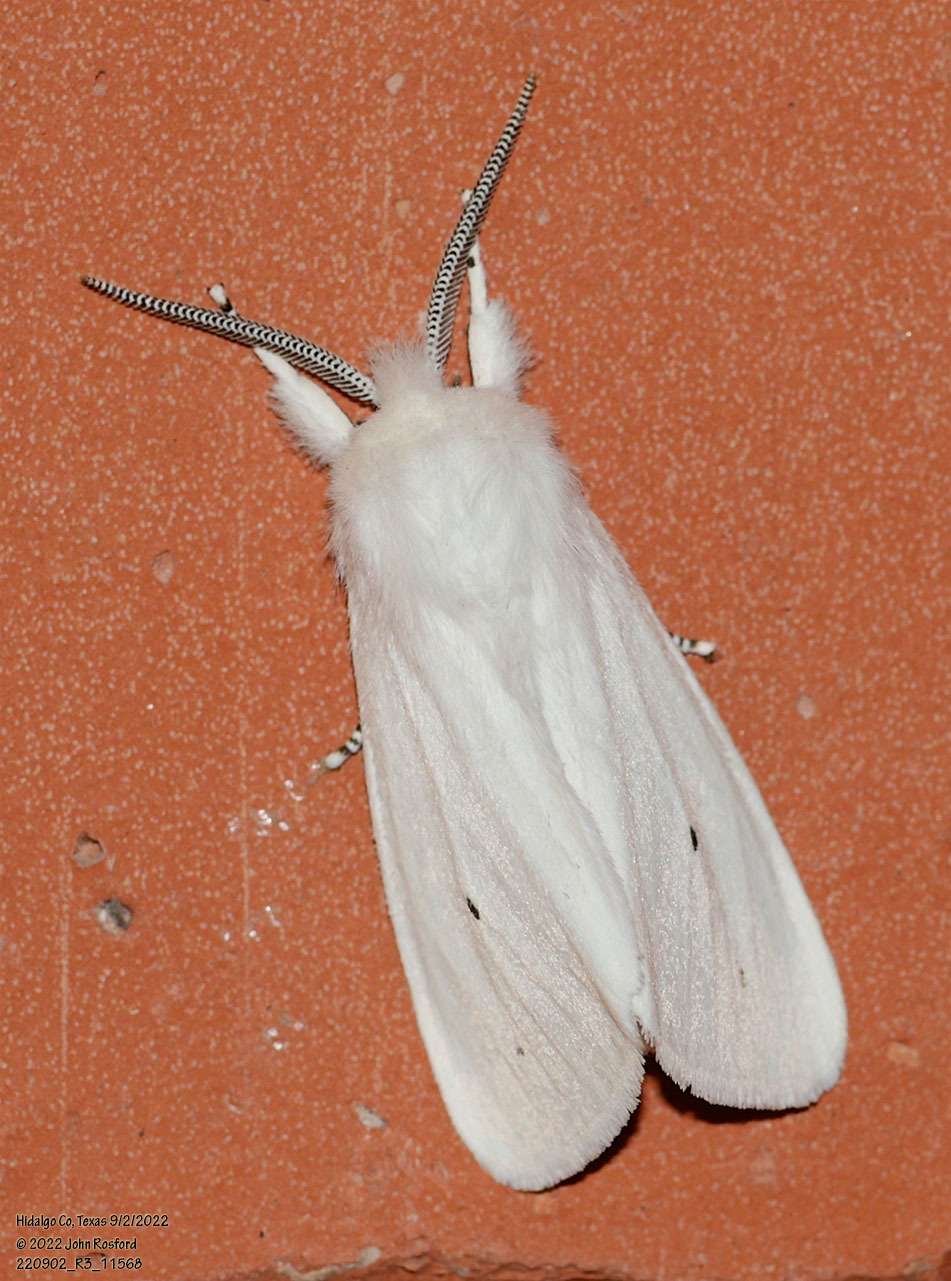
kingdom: Animalia
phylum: Arthropoda
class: Insecta
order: Lepidoptera
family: Erebidae
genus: Spilosoma
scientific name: Spilosoma virginica
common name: Virginia tiger moth
